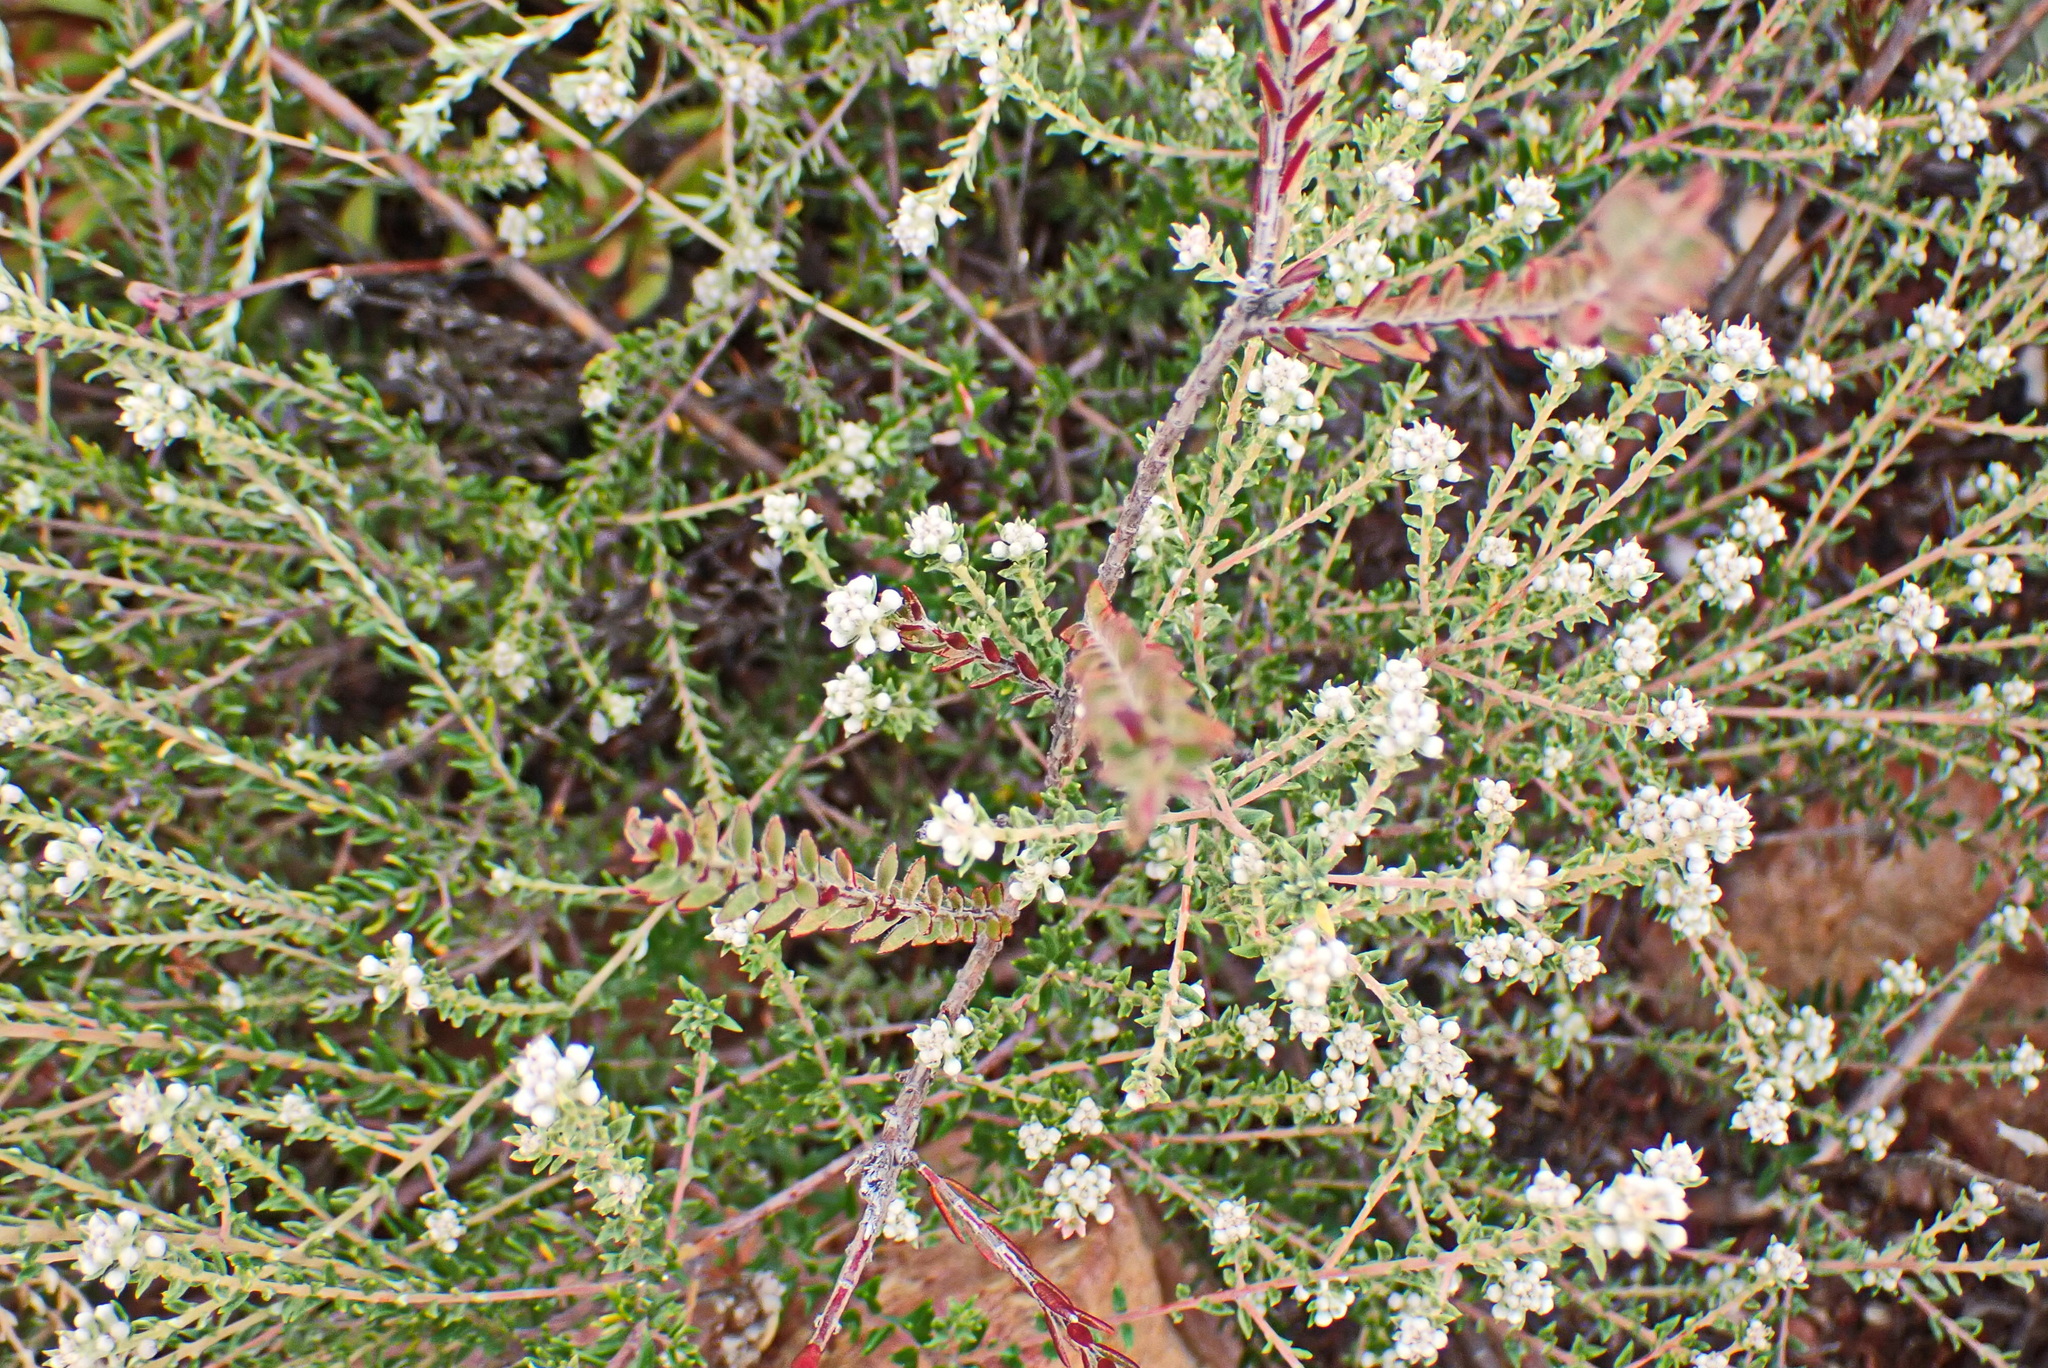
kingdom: Plantae
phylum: Tracheophyta
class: Magnoliopsida
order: Rosales
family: Rhamnaceae
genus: Phylica
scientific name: Phylica purpurea
